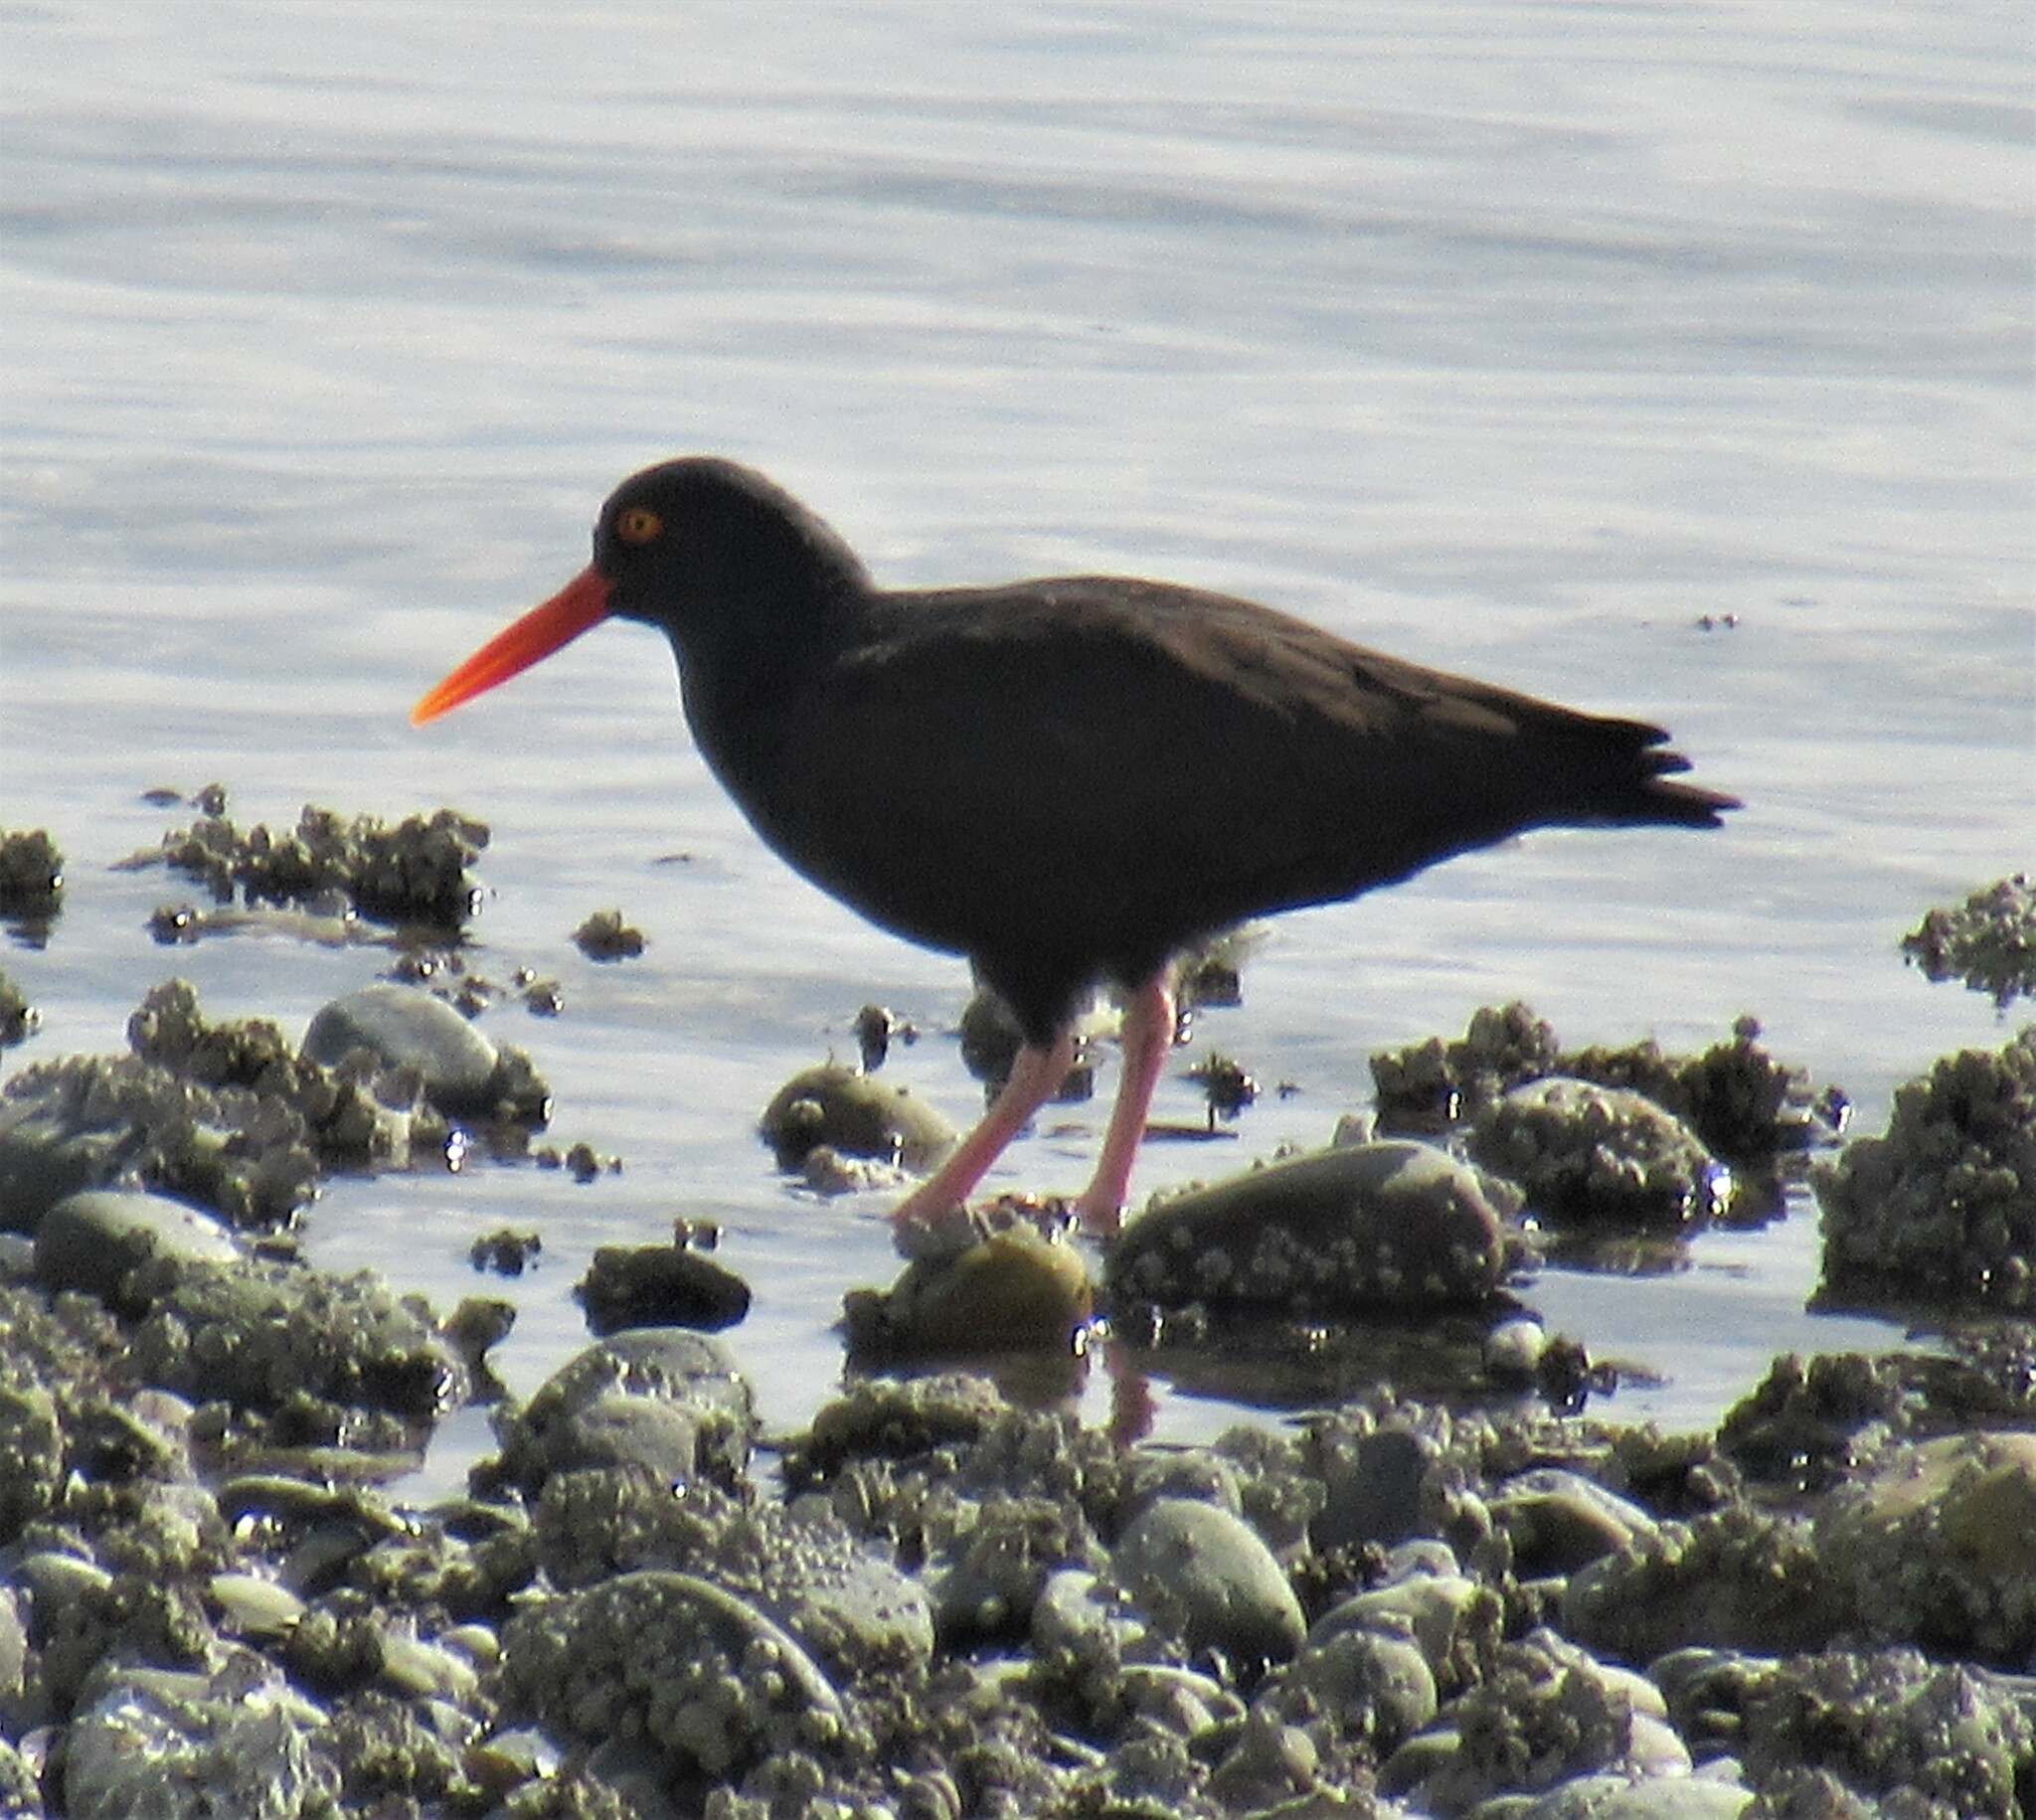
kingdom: Animalia
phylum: Chordata
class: Aves
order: Charadriiformes
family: Haematopodidae
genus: Haematopus
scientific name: Haematopus bachmani
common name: Black oystercatcher
